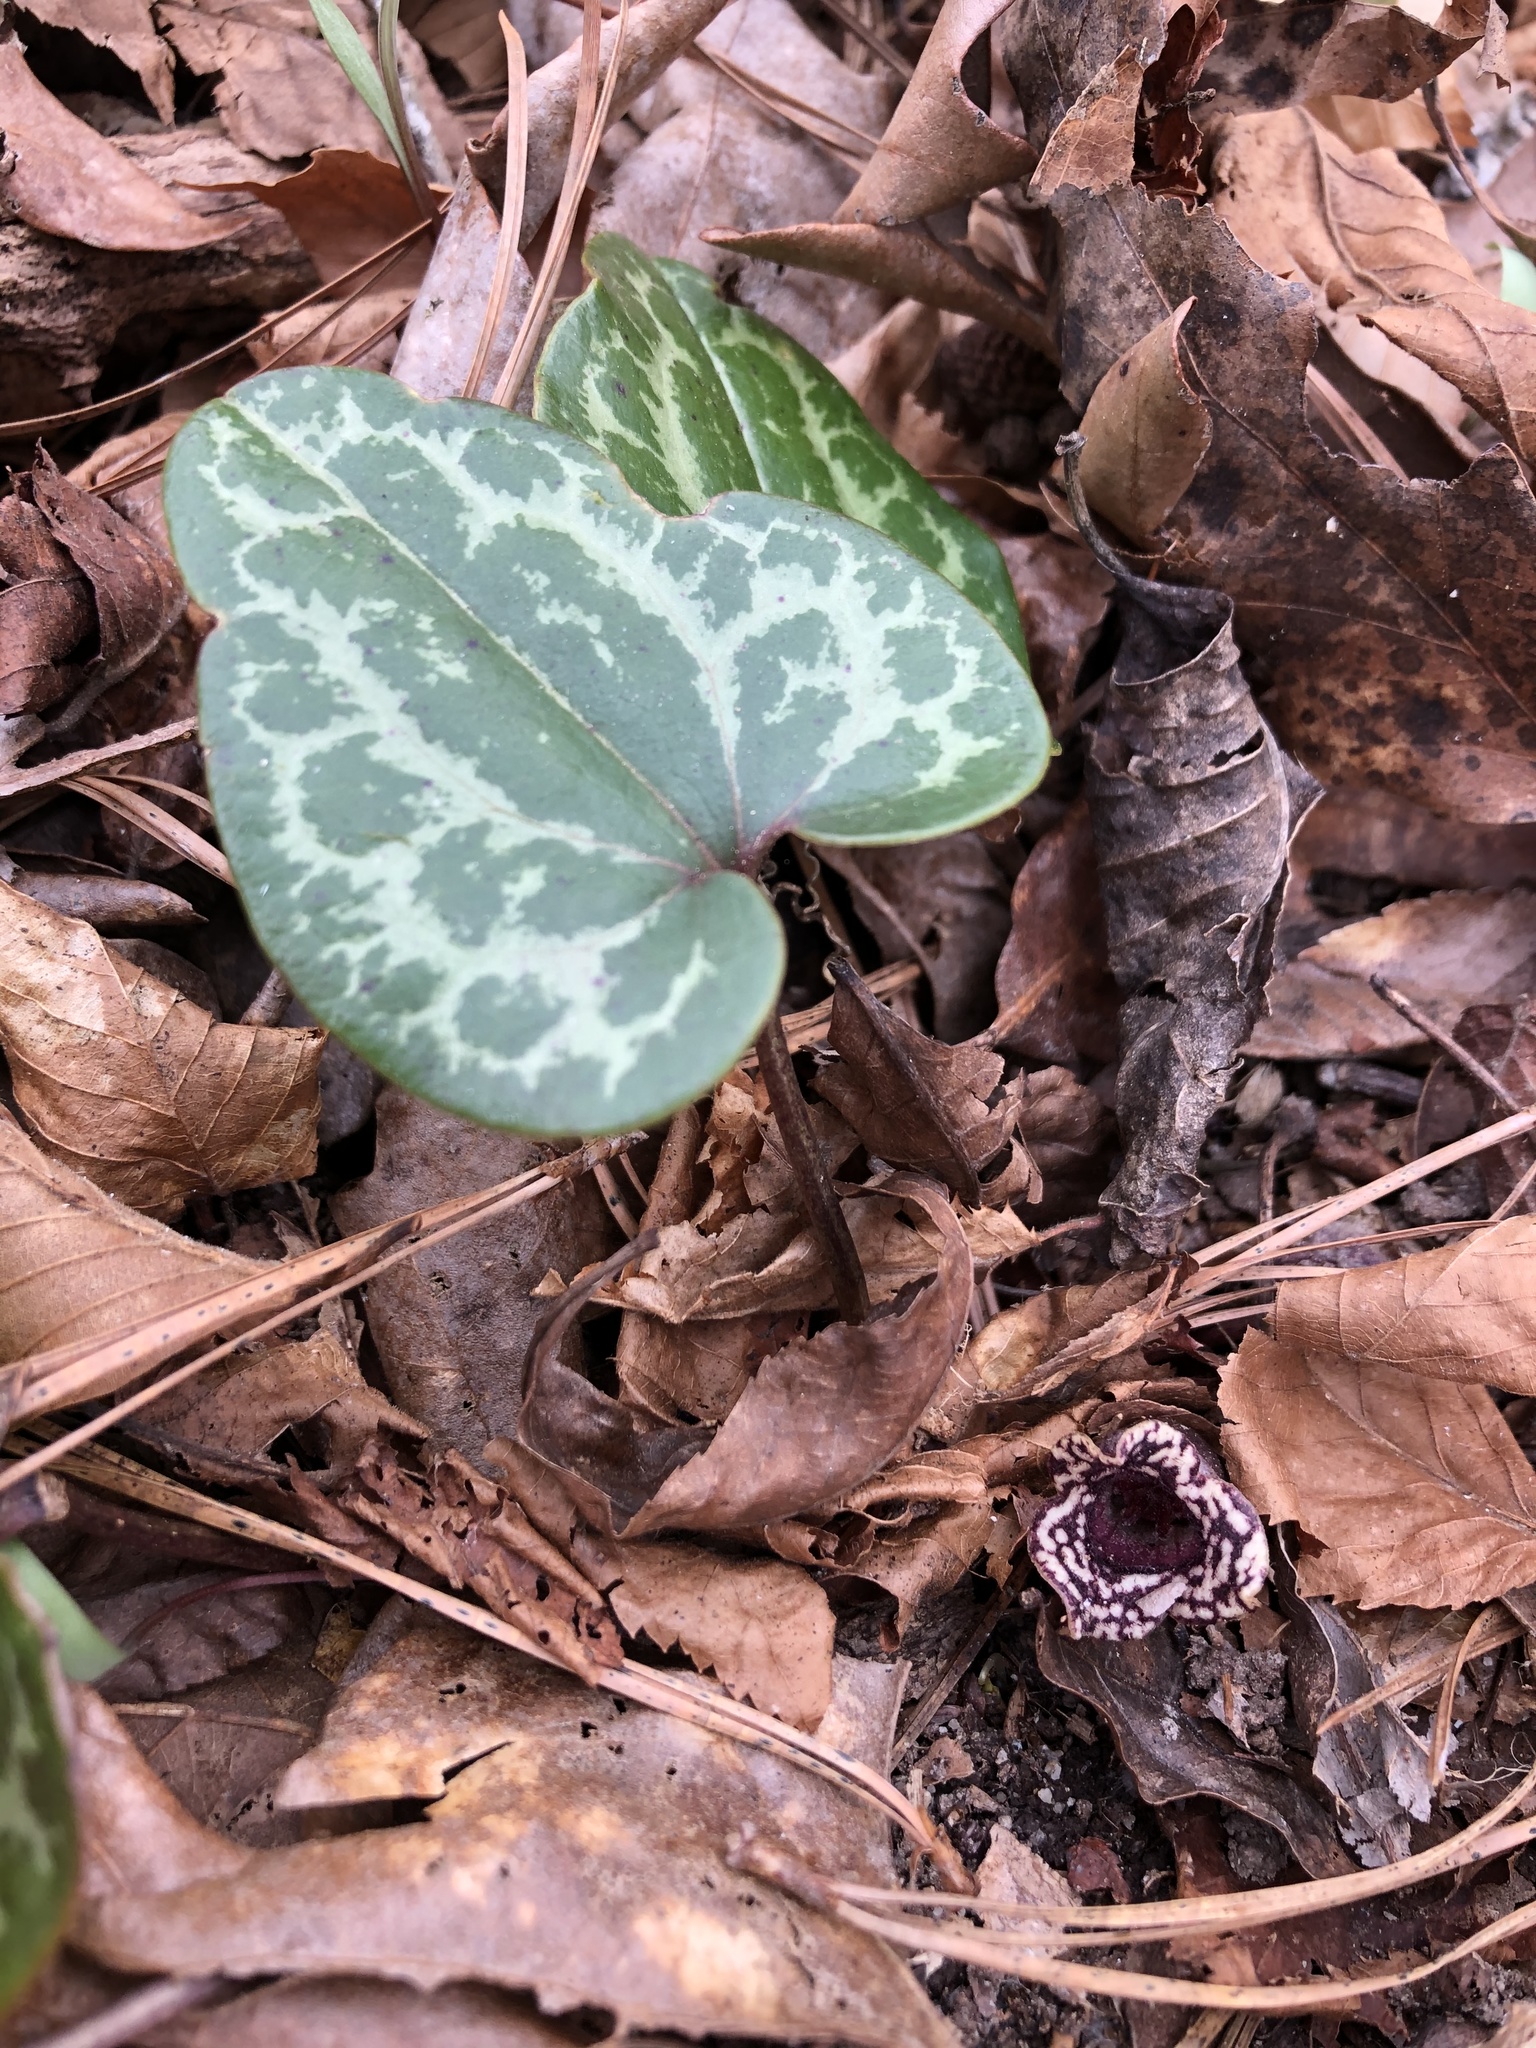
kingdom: Plantae
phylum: Tracheophyta
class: Magnoliopsida
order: Piperales
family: Aristolochiaceae
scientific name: Aristolochiaceae
